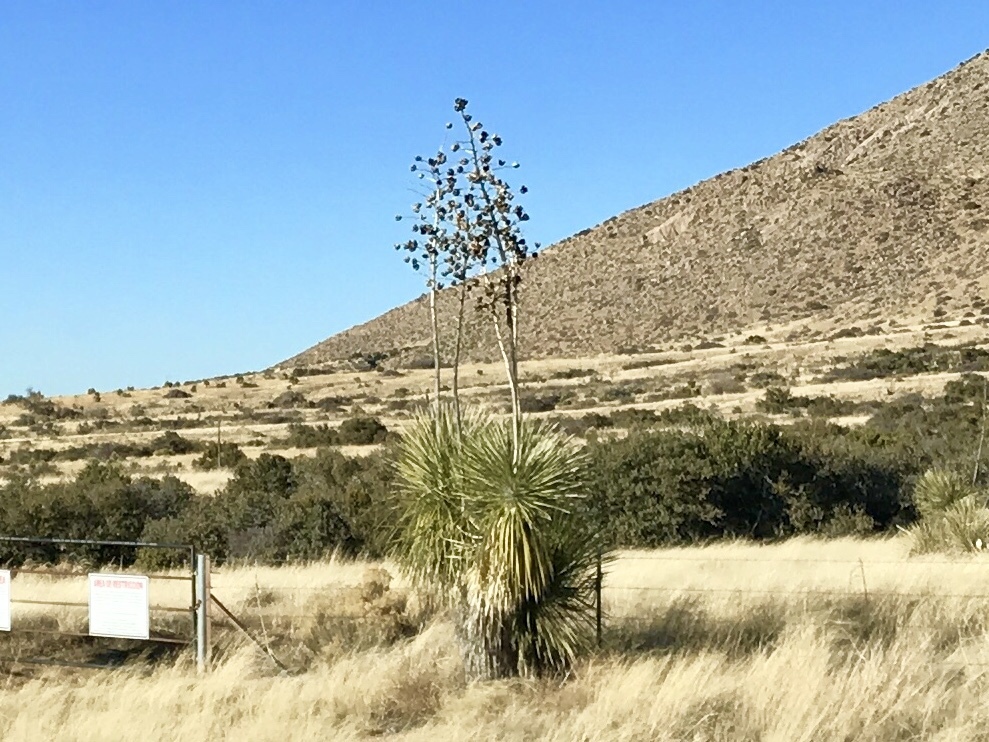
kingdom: Plantae
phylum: Tracheophyta
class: Liliopsida
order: Asparagales
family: Asparagaceae
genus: Yucca
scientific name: Yucca elata
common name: Palmella
